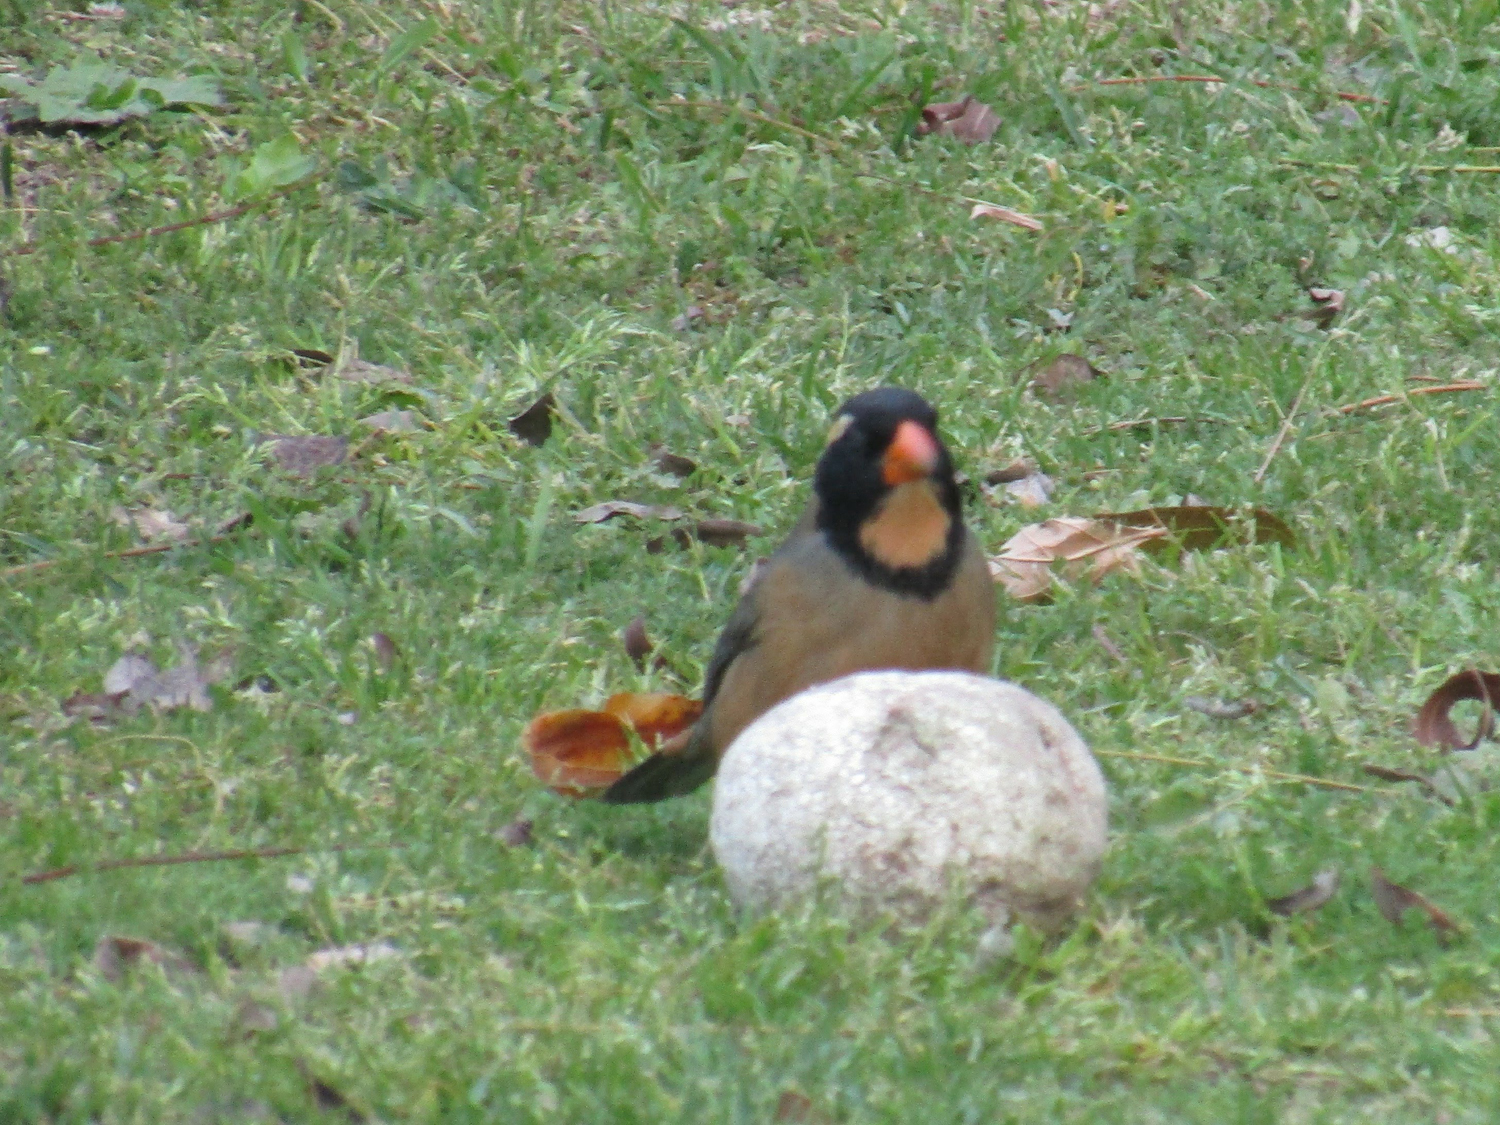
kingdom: Animalia
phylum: Chordata
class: Aves
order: Passeriformes
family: Thraupidae
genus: Saltator
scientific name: Saltator aurantiirostris
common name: Golden-billed saltator
